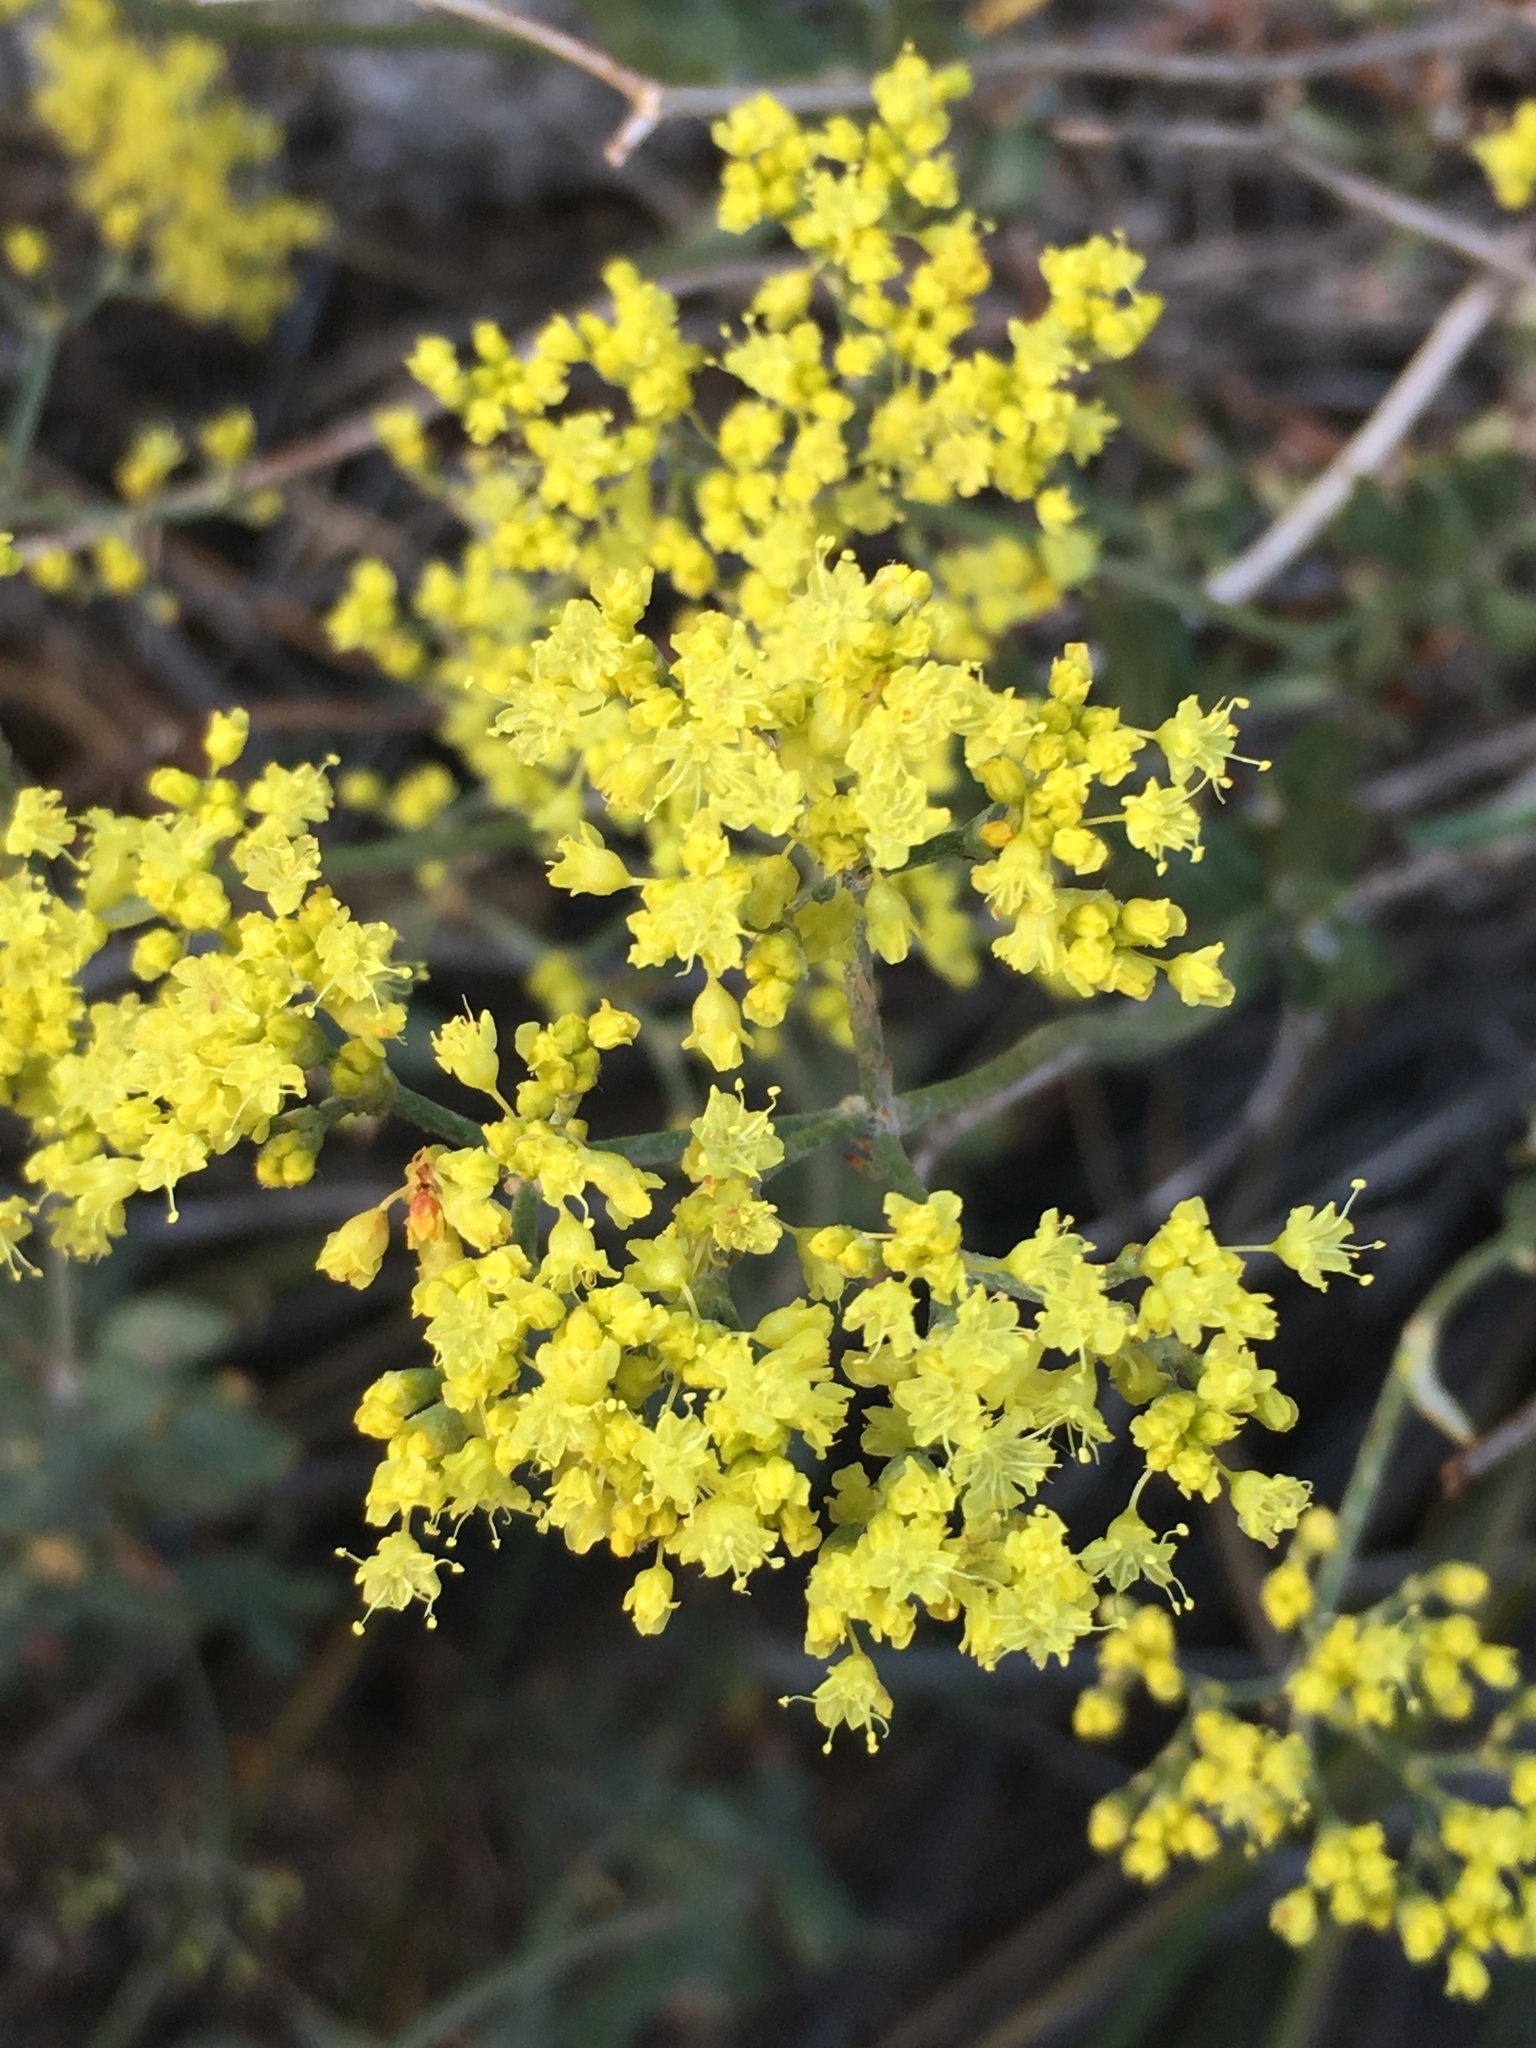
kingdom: Plantae
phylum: Tracheophyta
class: Magnoliopsida
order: Caryophyllales
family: Polygonaceae
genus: Eriogonum
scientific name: Eriogonum microtheca
